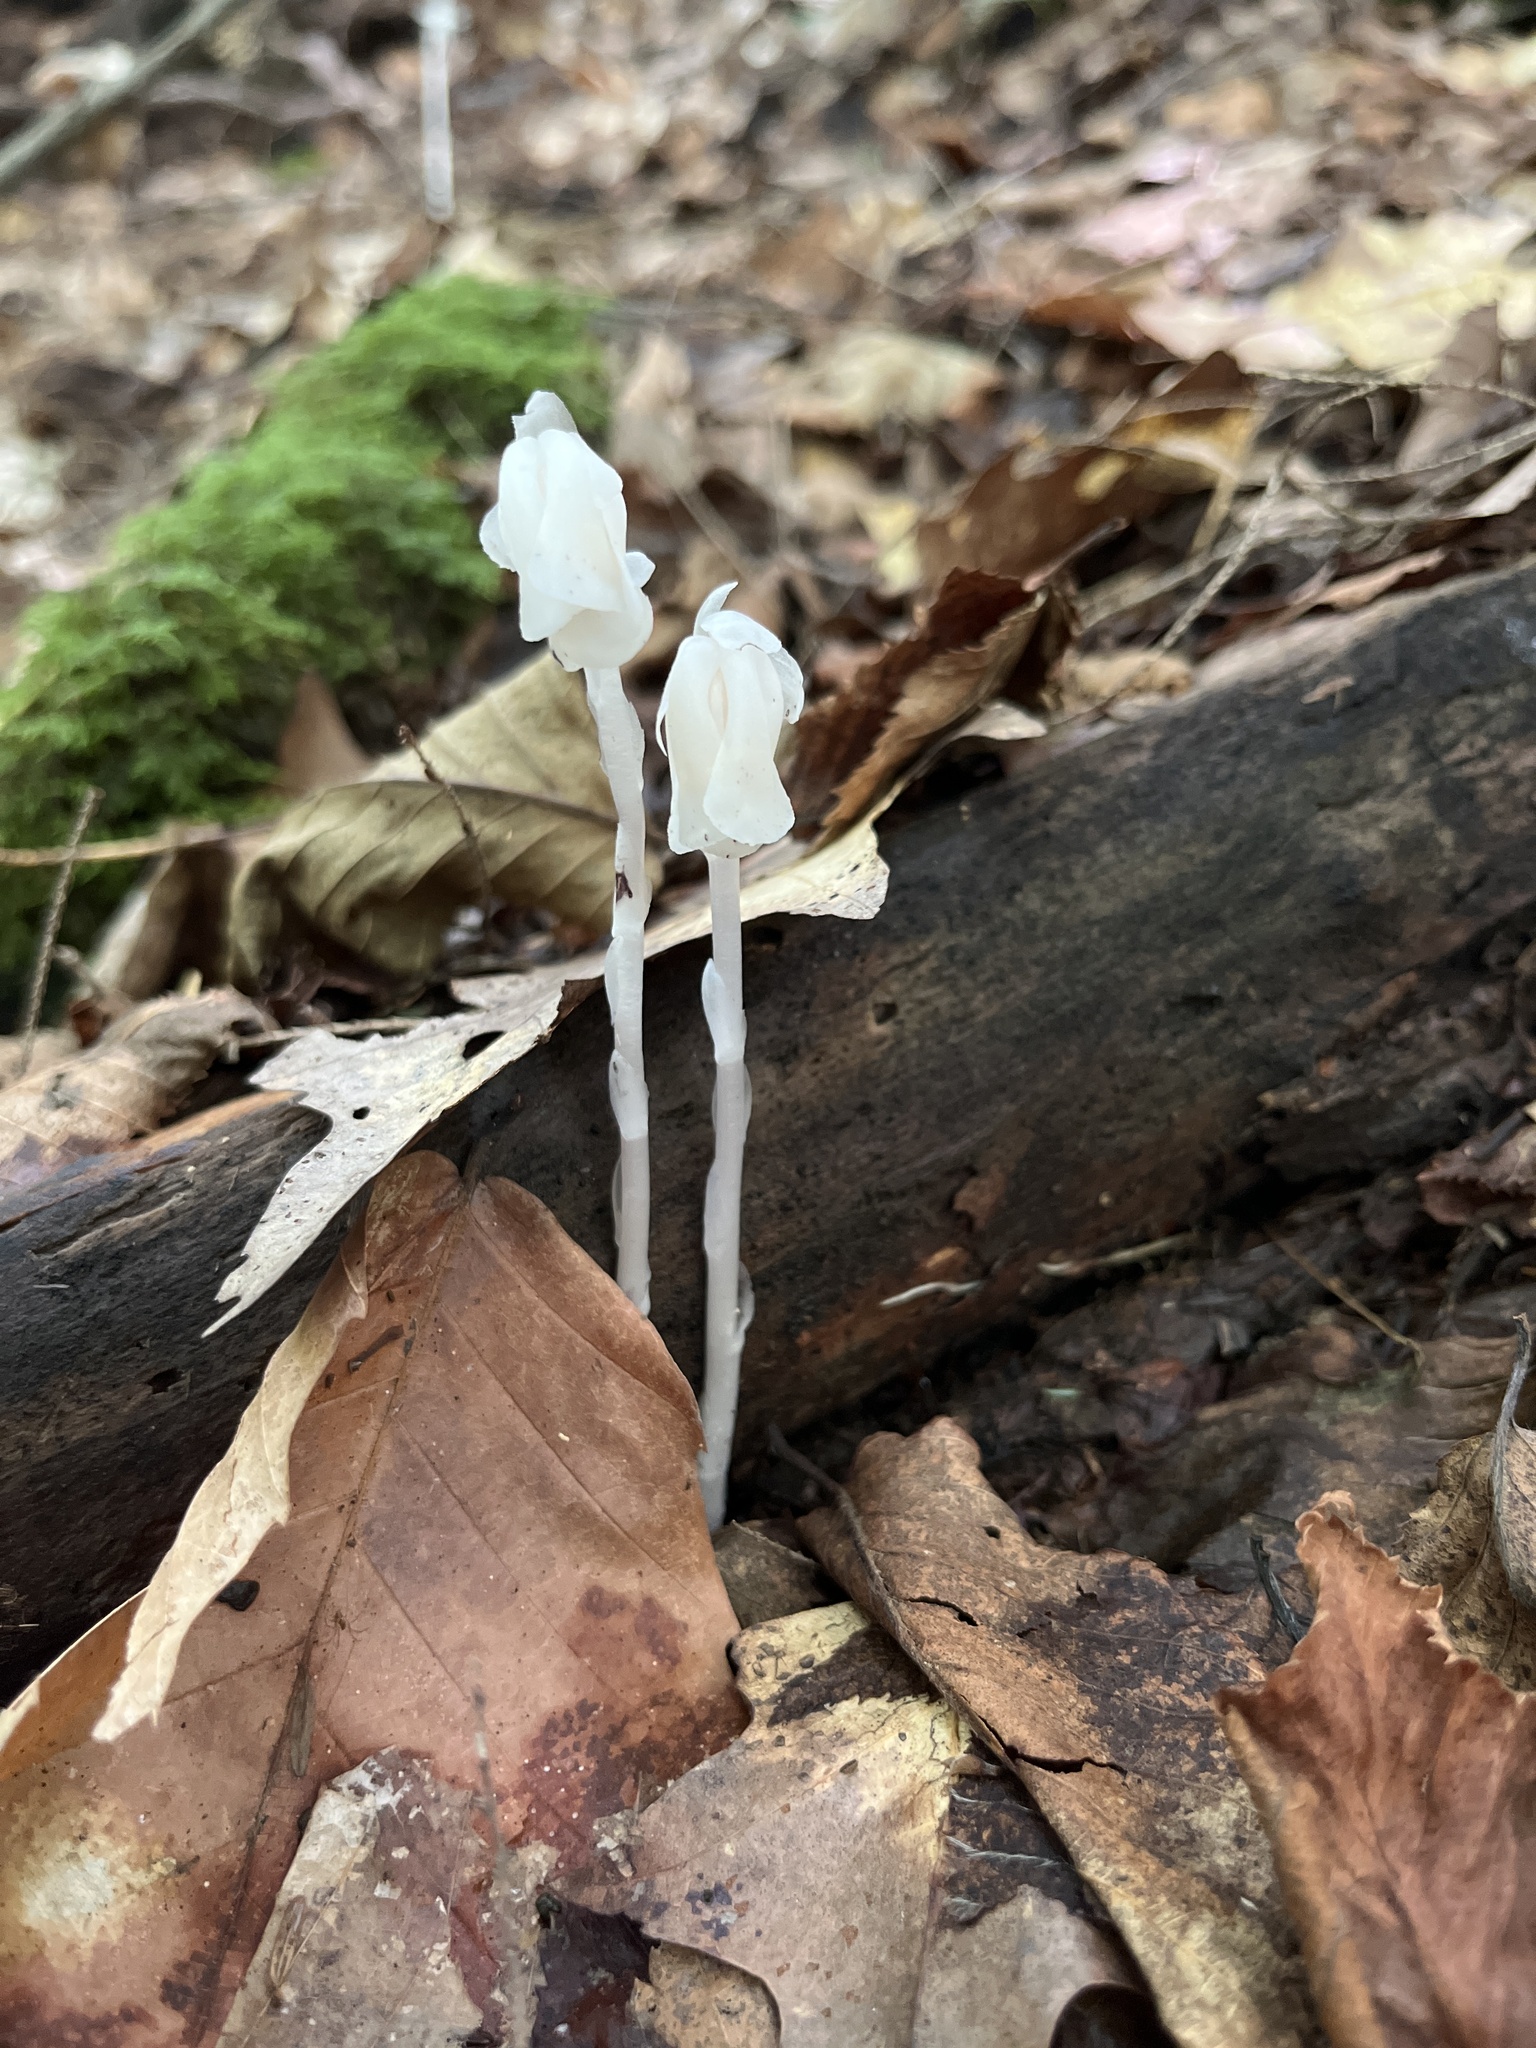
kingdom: Plantae
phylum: Tracheophyta
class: Magnoliopsida
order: Ericales
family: Ericaceae
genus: Monotropa
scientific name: Monotropa uniflora
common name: Convulsion root
